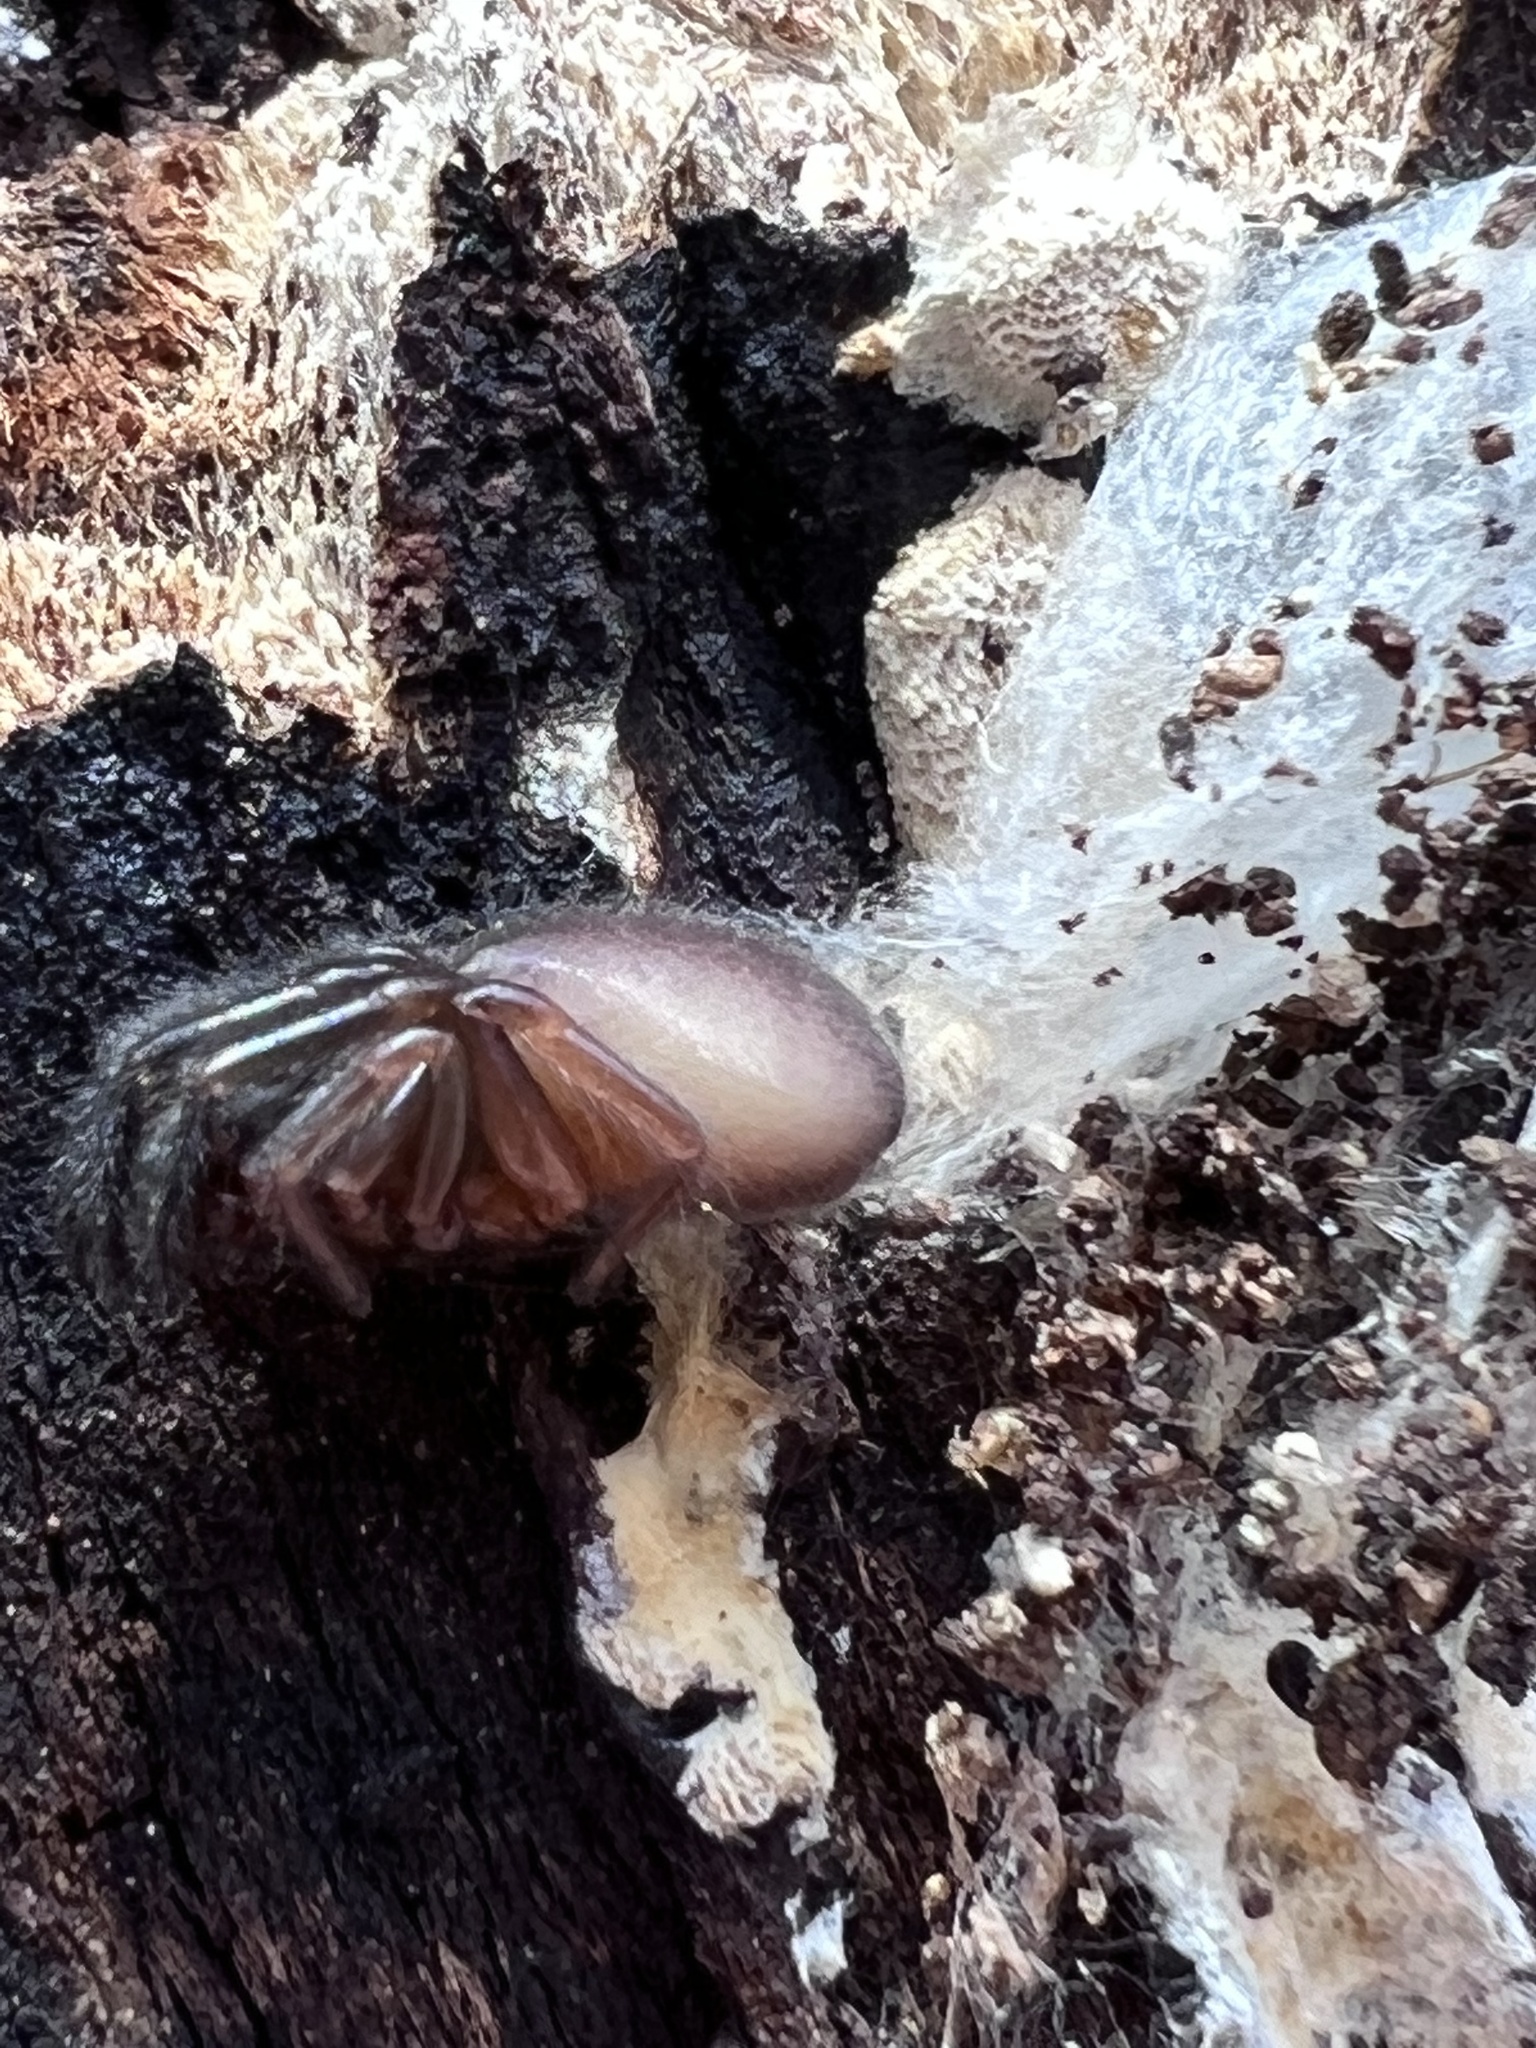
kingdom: Animalia
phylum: Arthropoda
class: Arachnida
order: Araneae
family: Segestriidae
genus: Ariadna
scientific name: Ariadna bicolor
